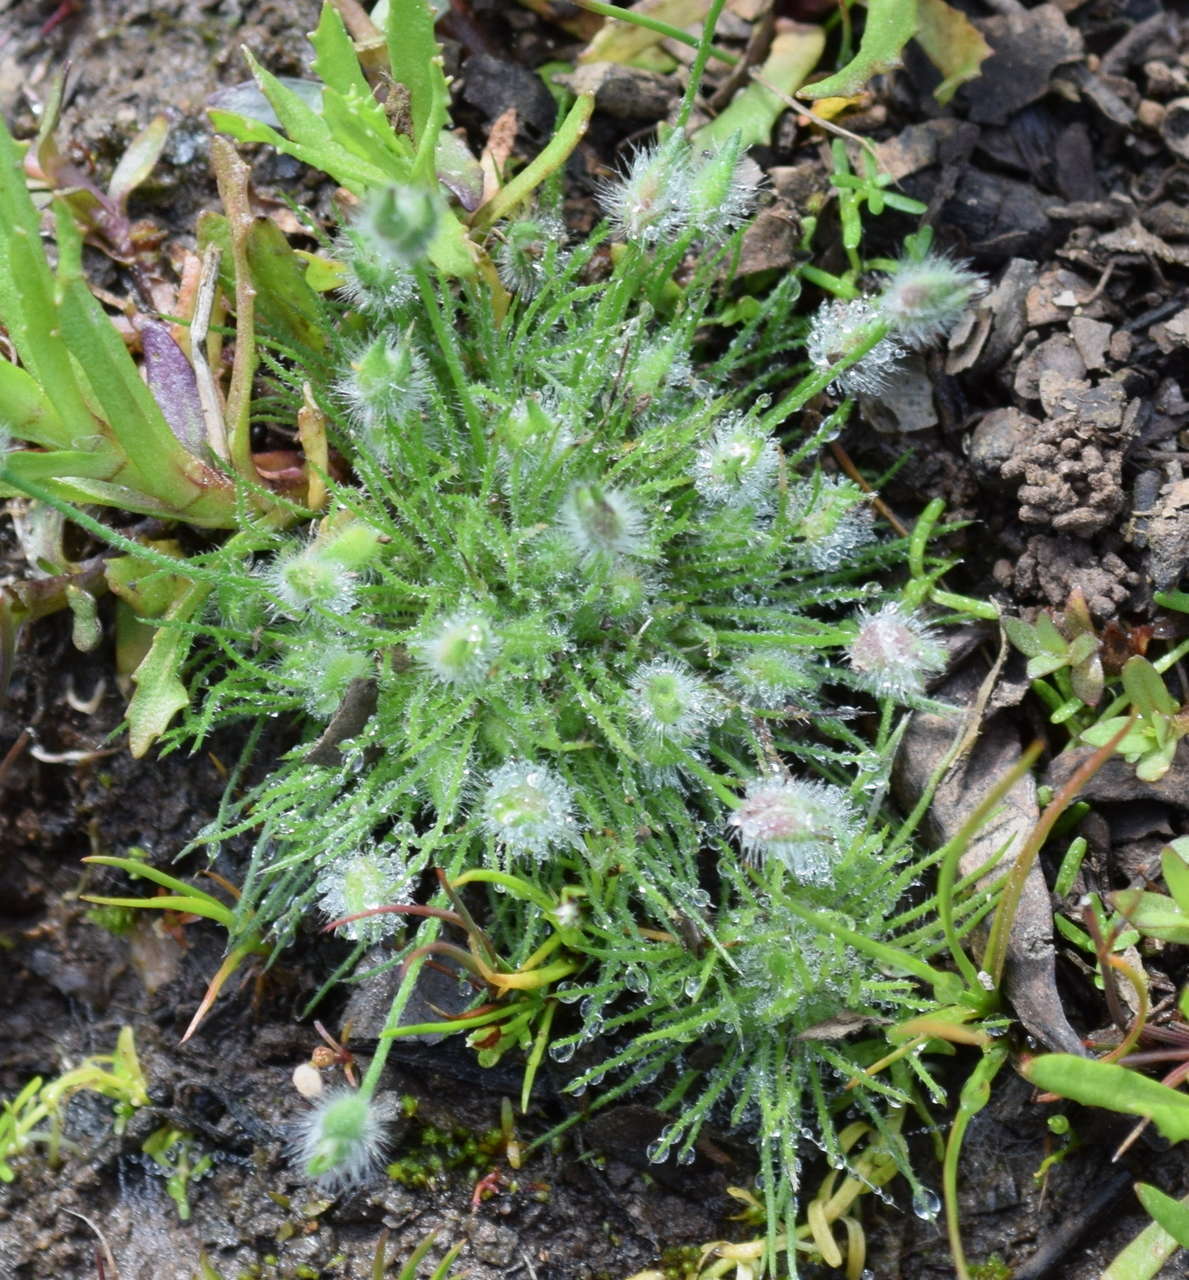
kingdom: Plantae
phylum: Tracheophyta
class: Liliopsida
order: Poales
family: Restionaceae
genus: Centrolepis
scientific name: Centrolepis strigosa
